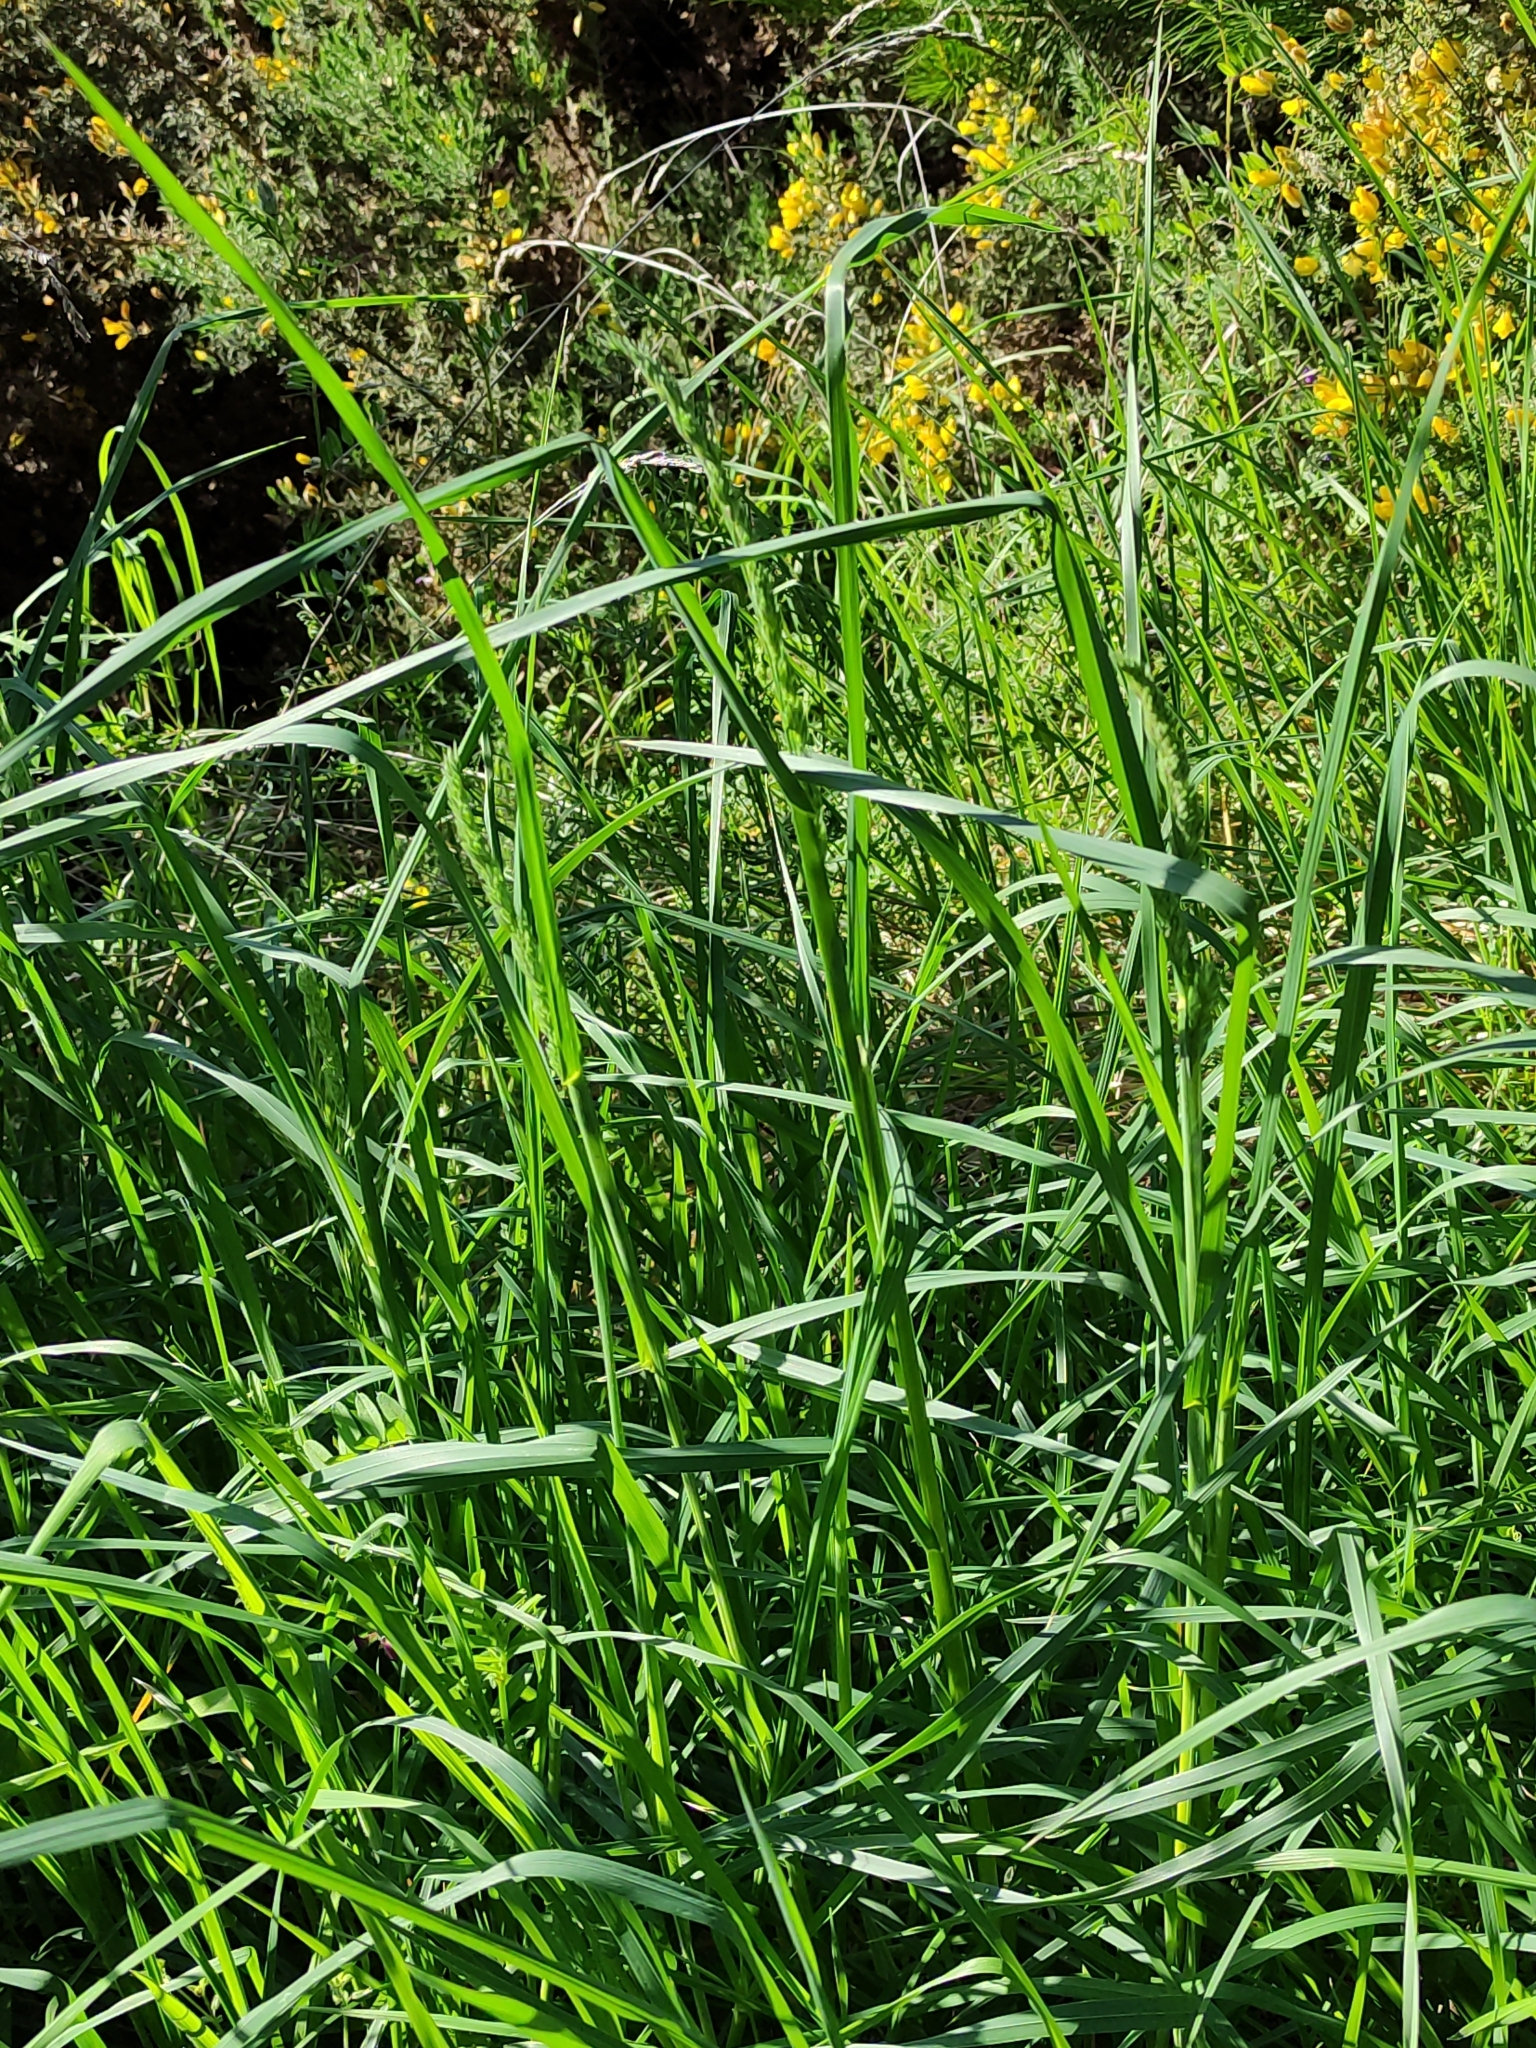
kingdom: Plantae
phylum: Tracheophyta
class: Liliopsida
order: Poales
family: Poaceae
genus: Dactylis
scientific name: Dactylis glomerata
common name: Orchardgrass
